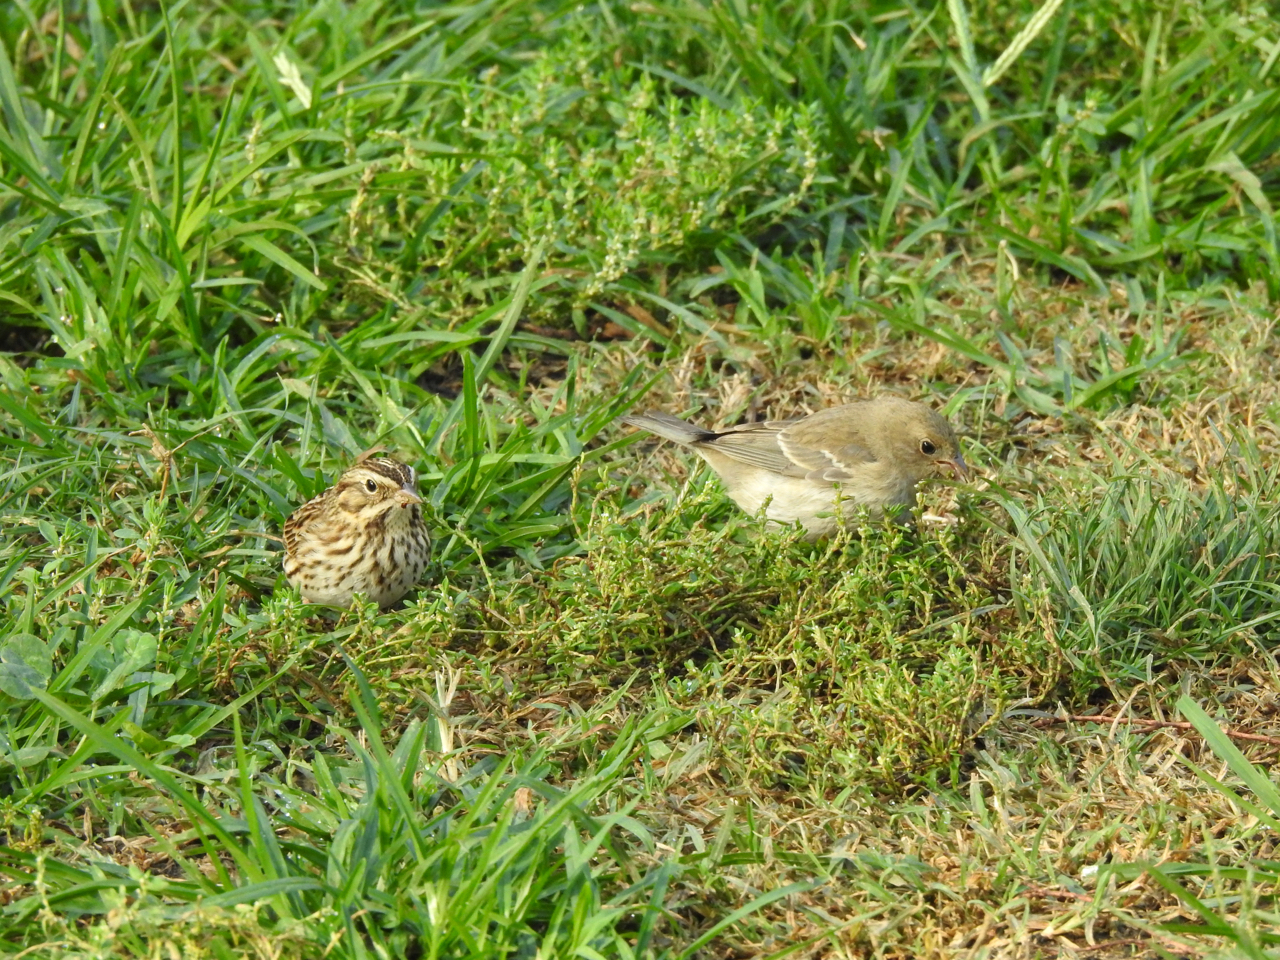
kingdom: Animalia
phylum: Chordata
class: Aves
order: Passeriformes
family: Passerellidae
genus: Passerculus
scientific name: Passerculus sandwichensis
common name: Savannah sparrow
